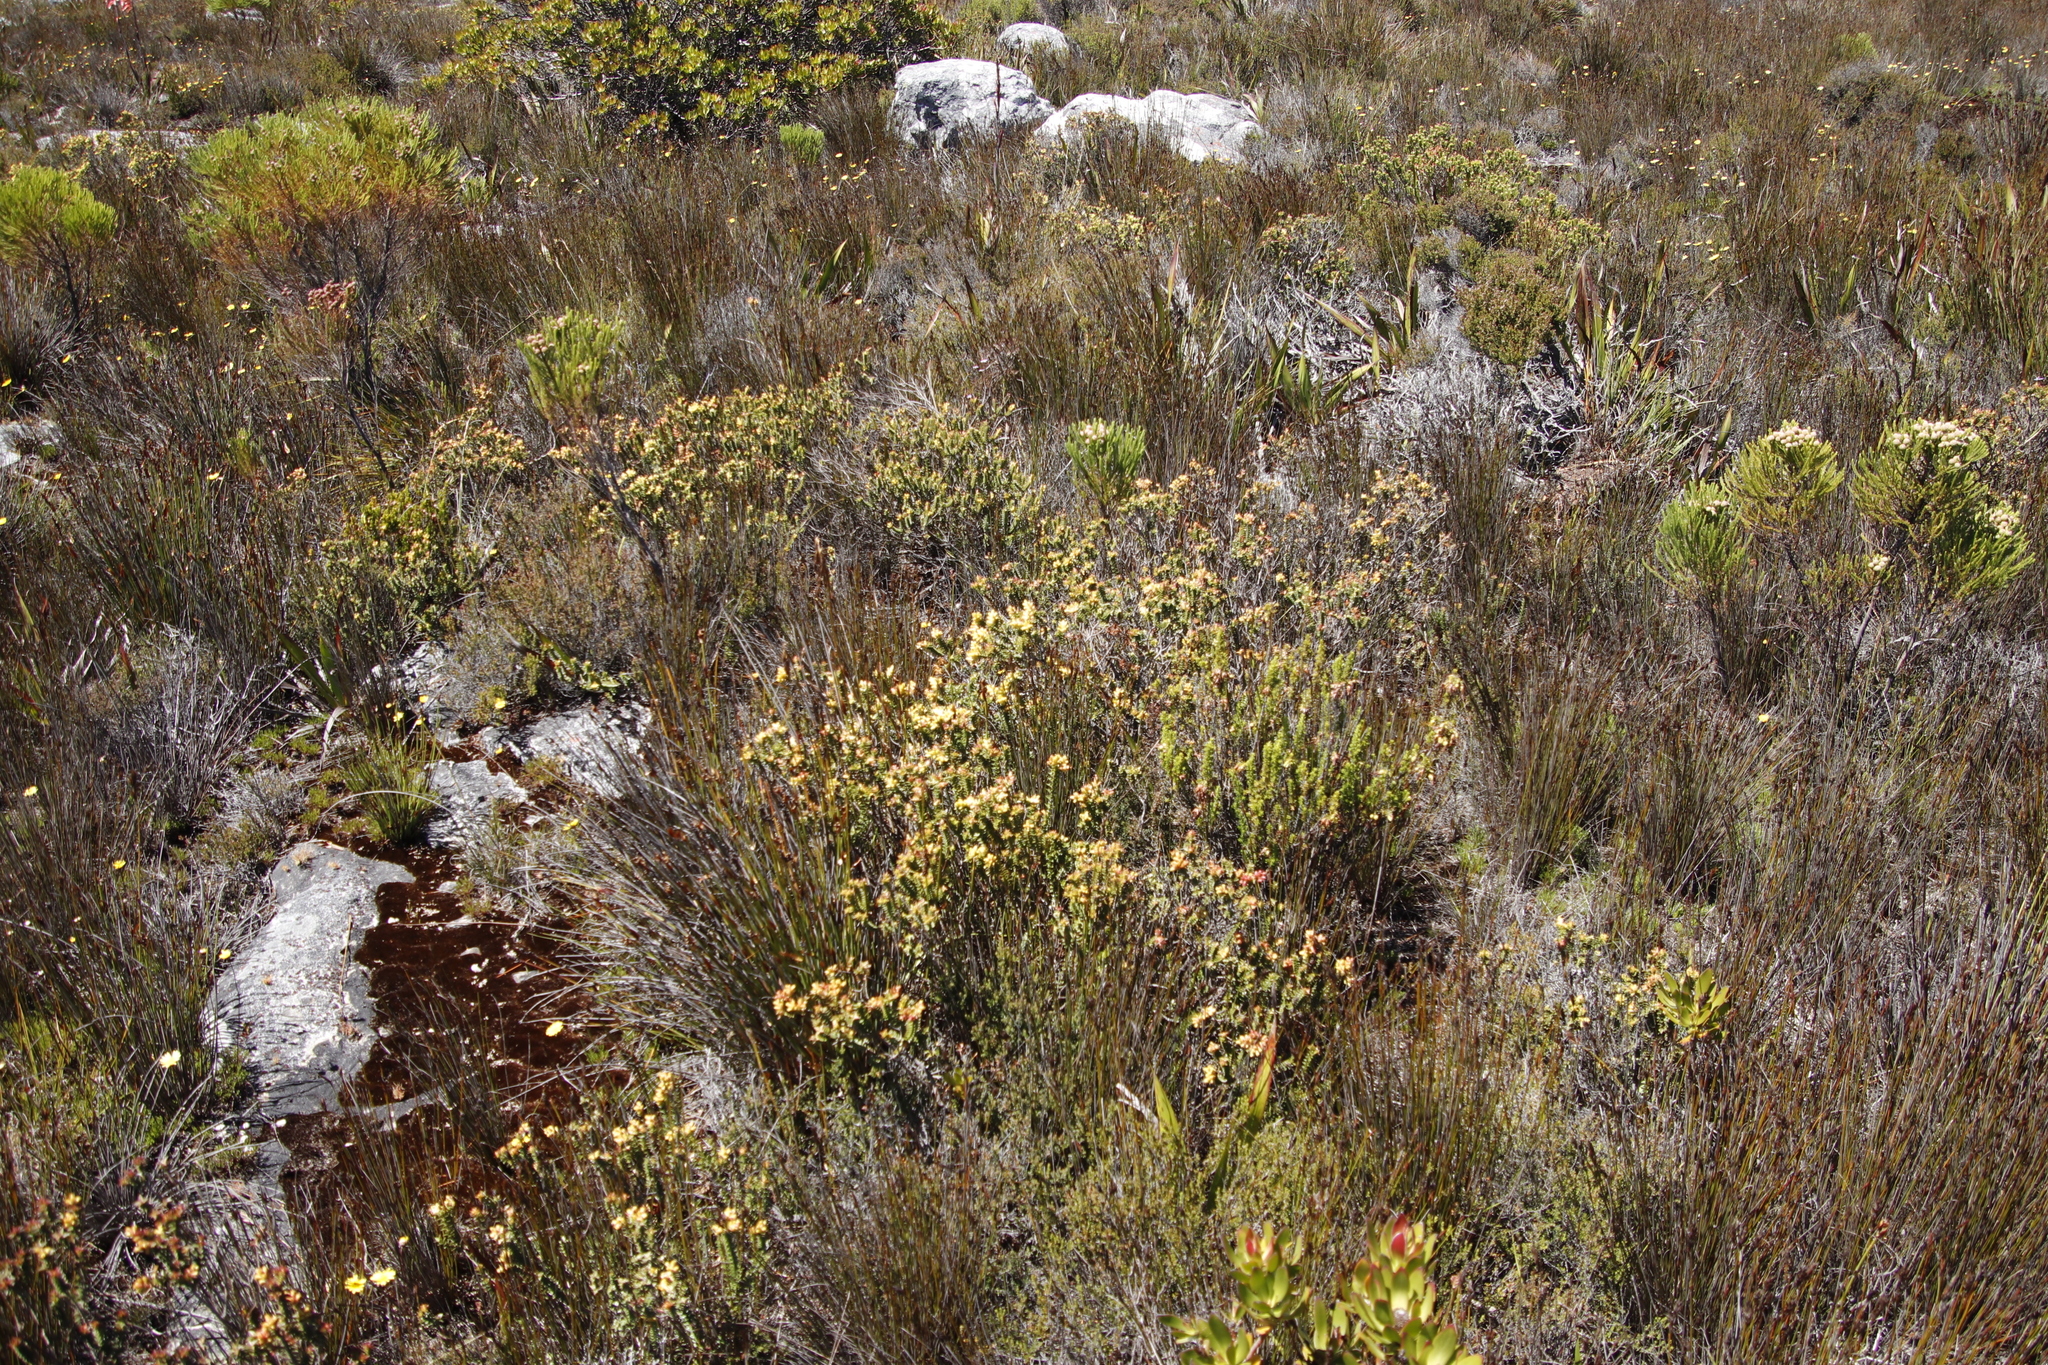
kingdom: Plantae
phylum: Tracheophyta
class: Magnoliopsida
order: Myrtales
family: Penaeaceae
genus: Penaea
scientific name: Penaea mucronata
